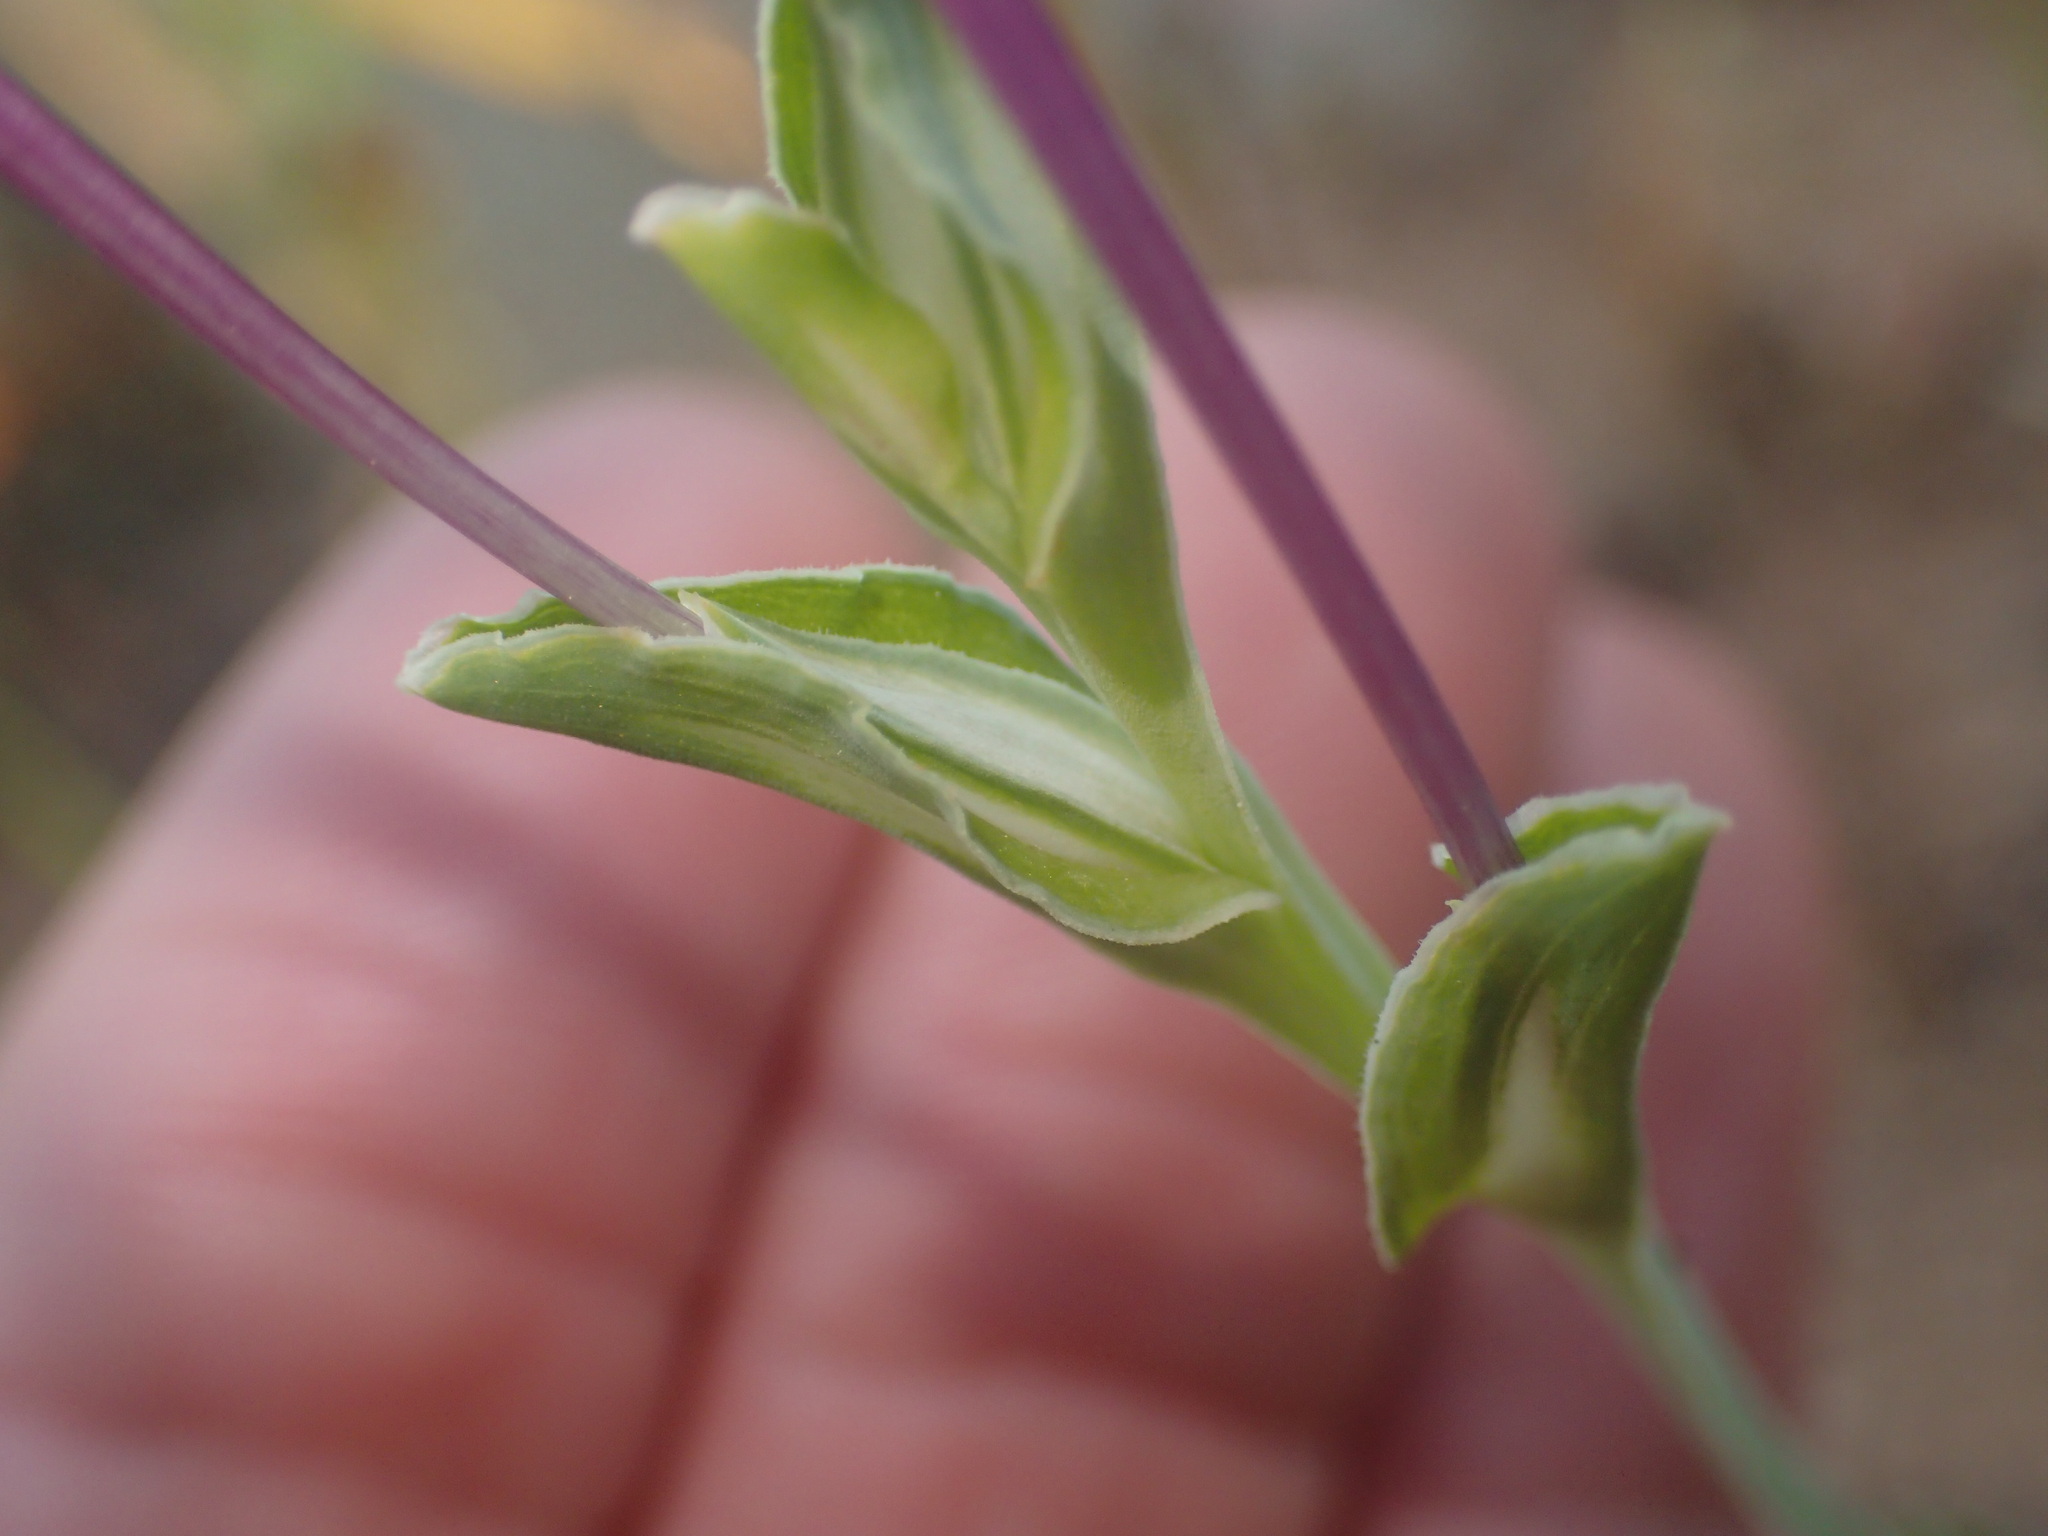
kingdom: Plantae
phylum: Tracheophyta
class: Liliopsida
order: Asparagales
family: Iridaceae
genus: Lapeirousia
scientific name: Lapeirousia jacquinii
